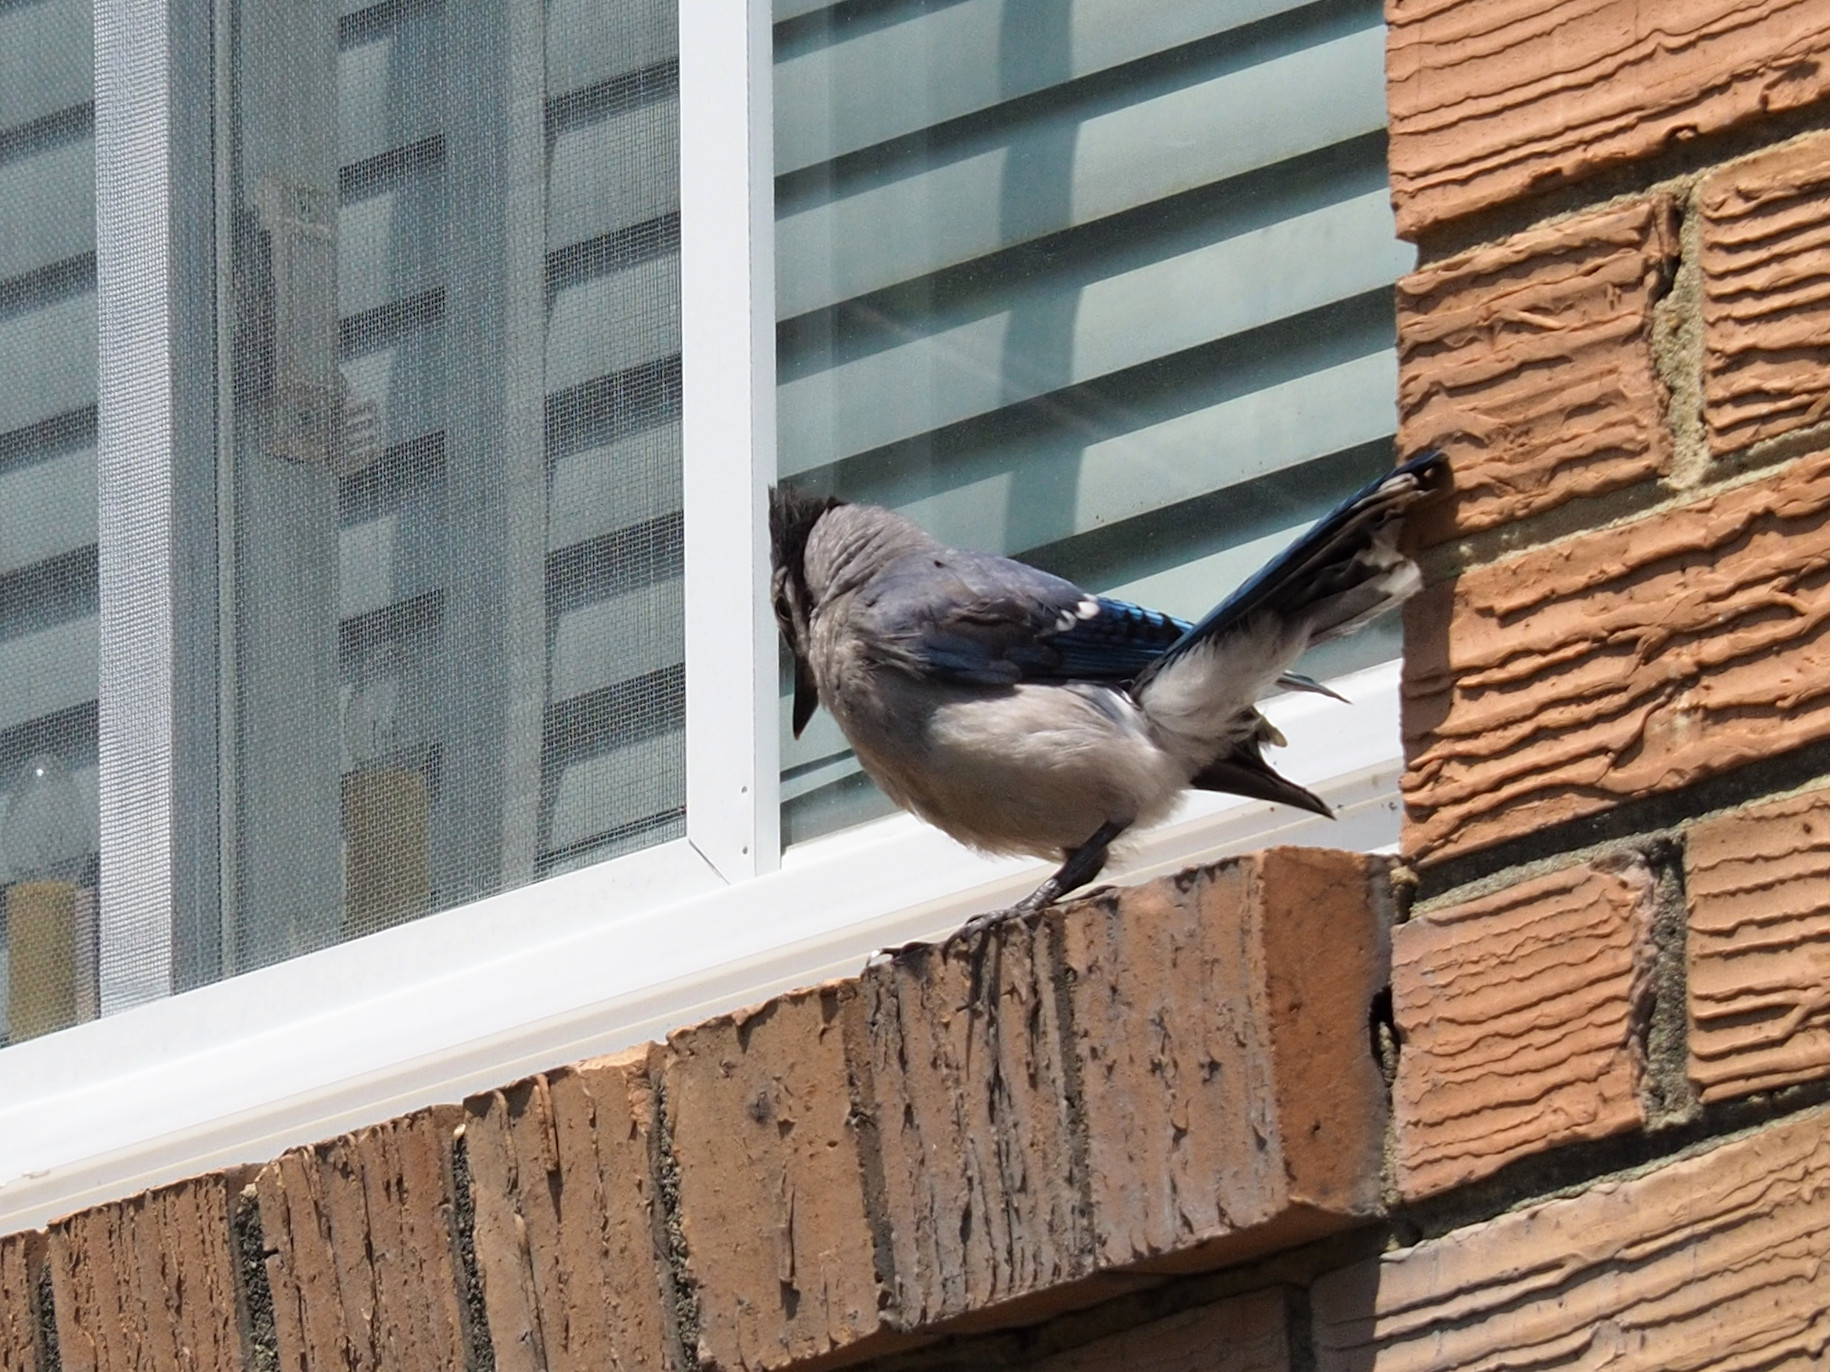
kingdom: Animalia
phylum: Chordata
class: Aves
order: Passeriformes
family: Corvidae
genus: Cyanocitta
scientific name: Cyanocitta cristata
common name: Blue jay
